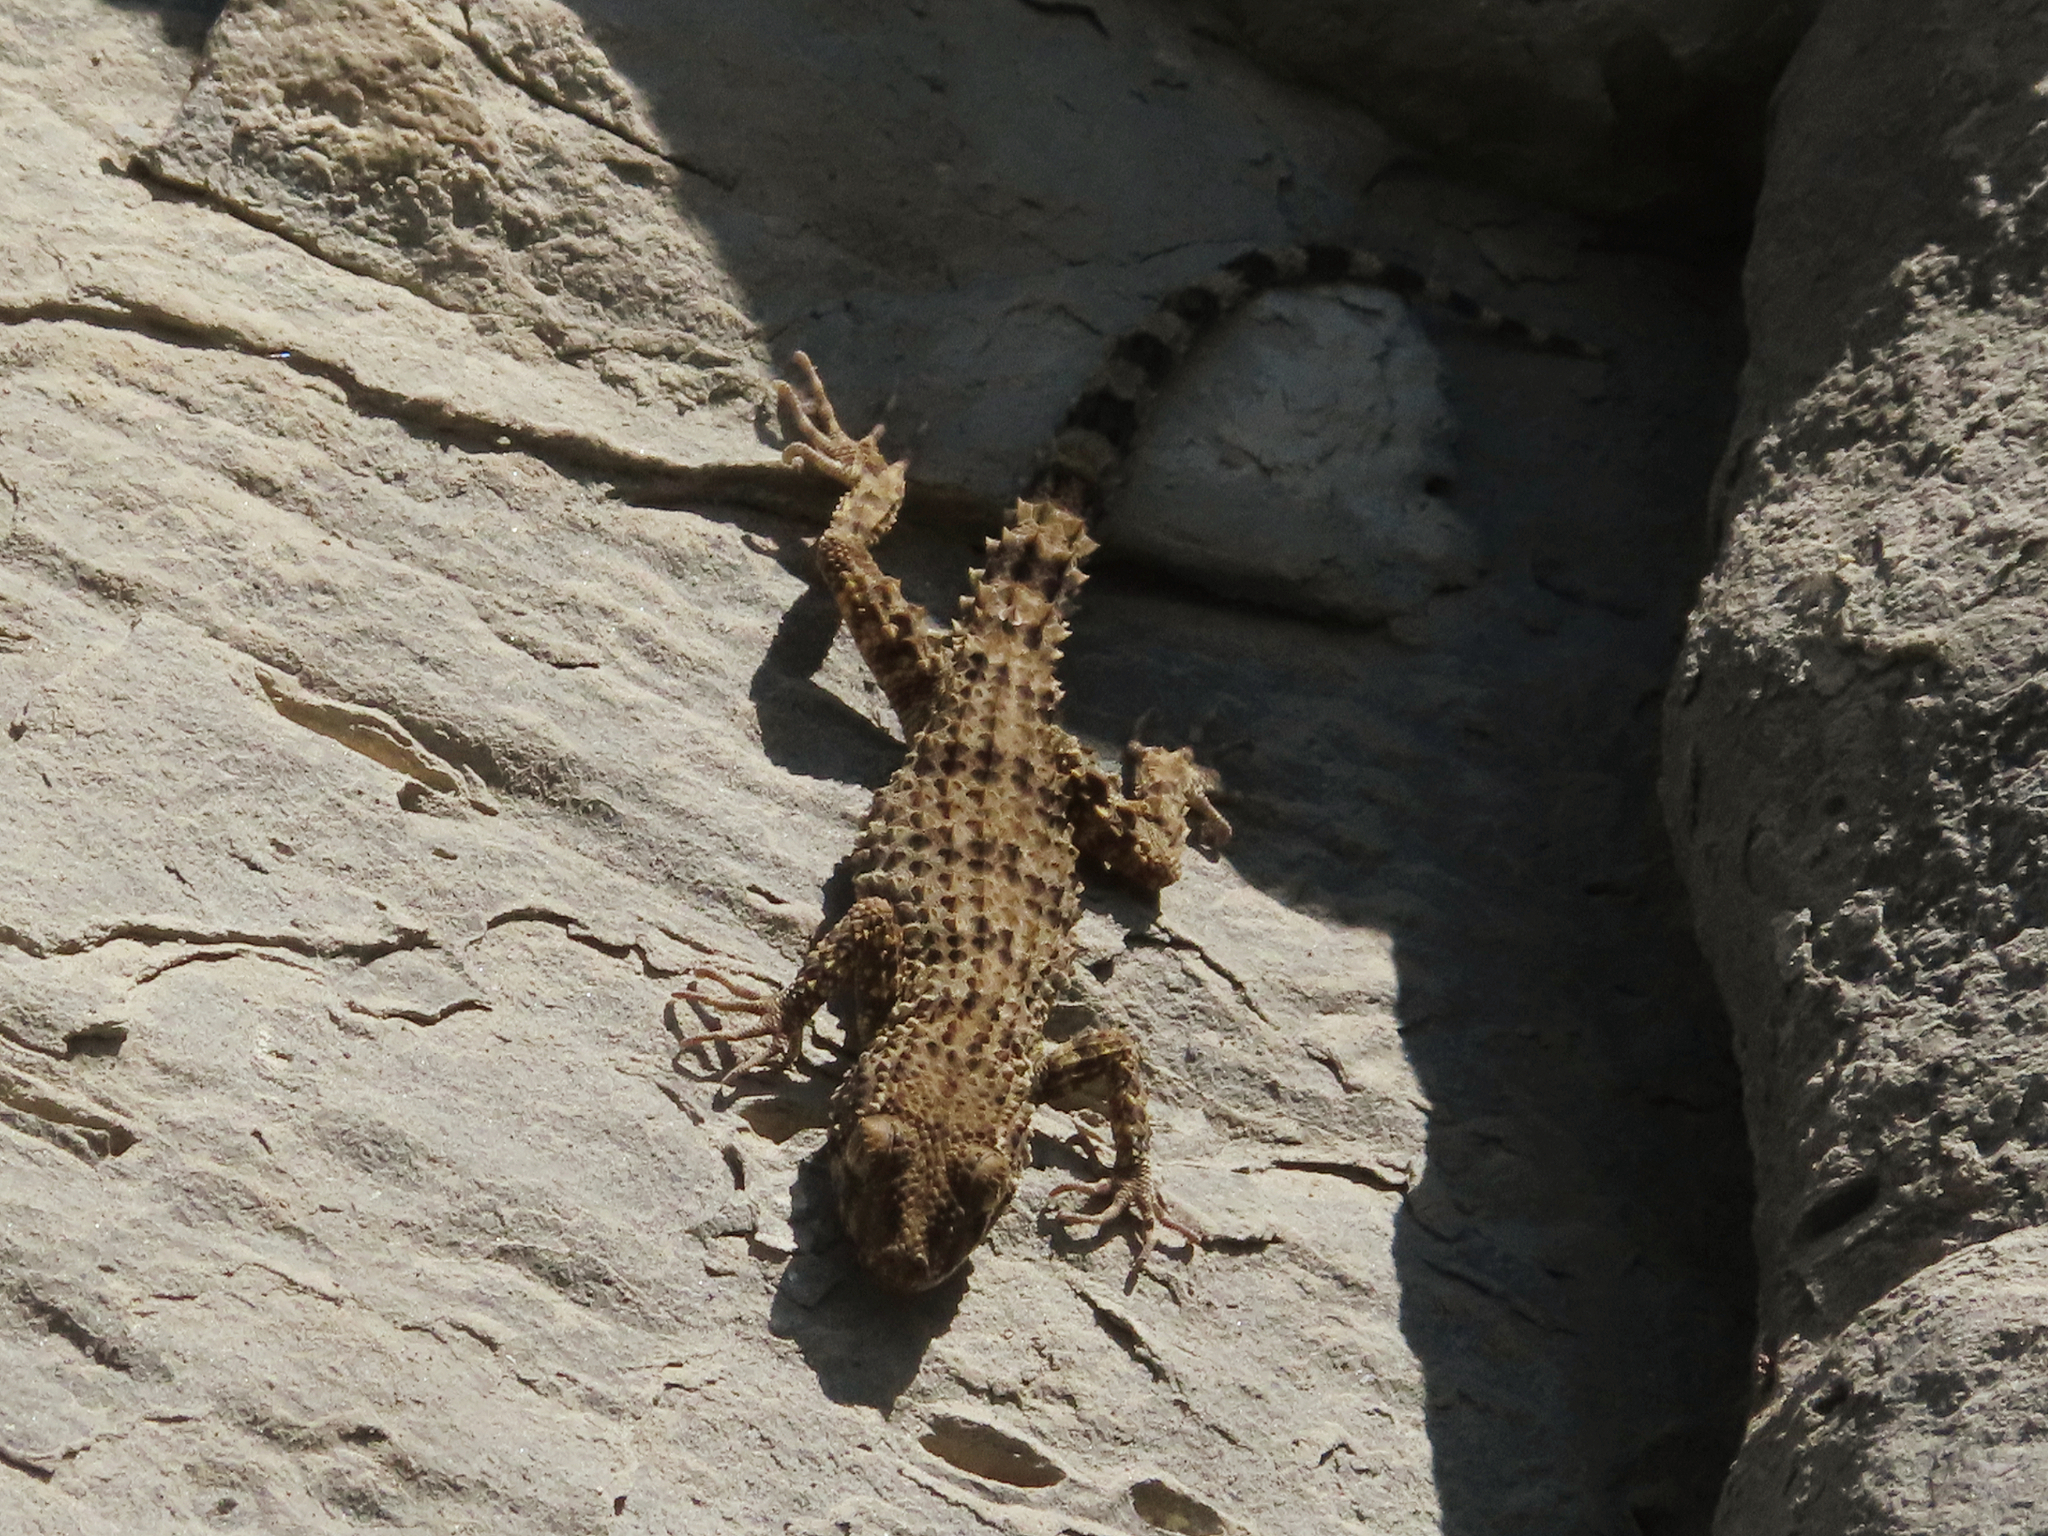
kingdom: Animalia
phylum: Chordata
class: Squamata
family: Gekkonidae
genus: Tenuidactylus
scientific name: Tenuidactylus caspius
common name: Caspian bent-toed gecko
